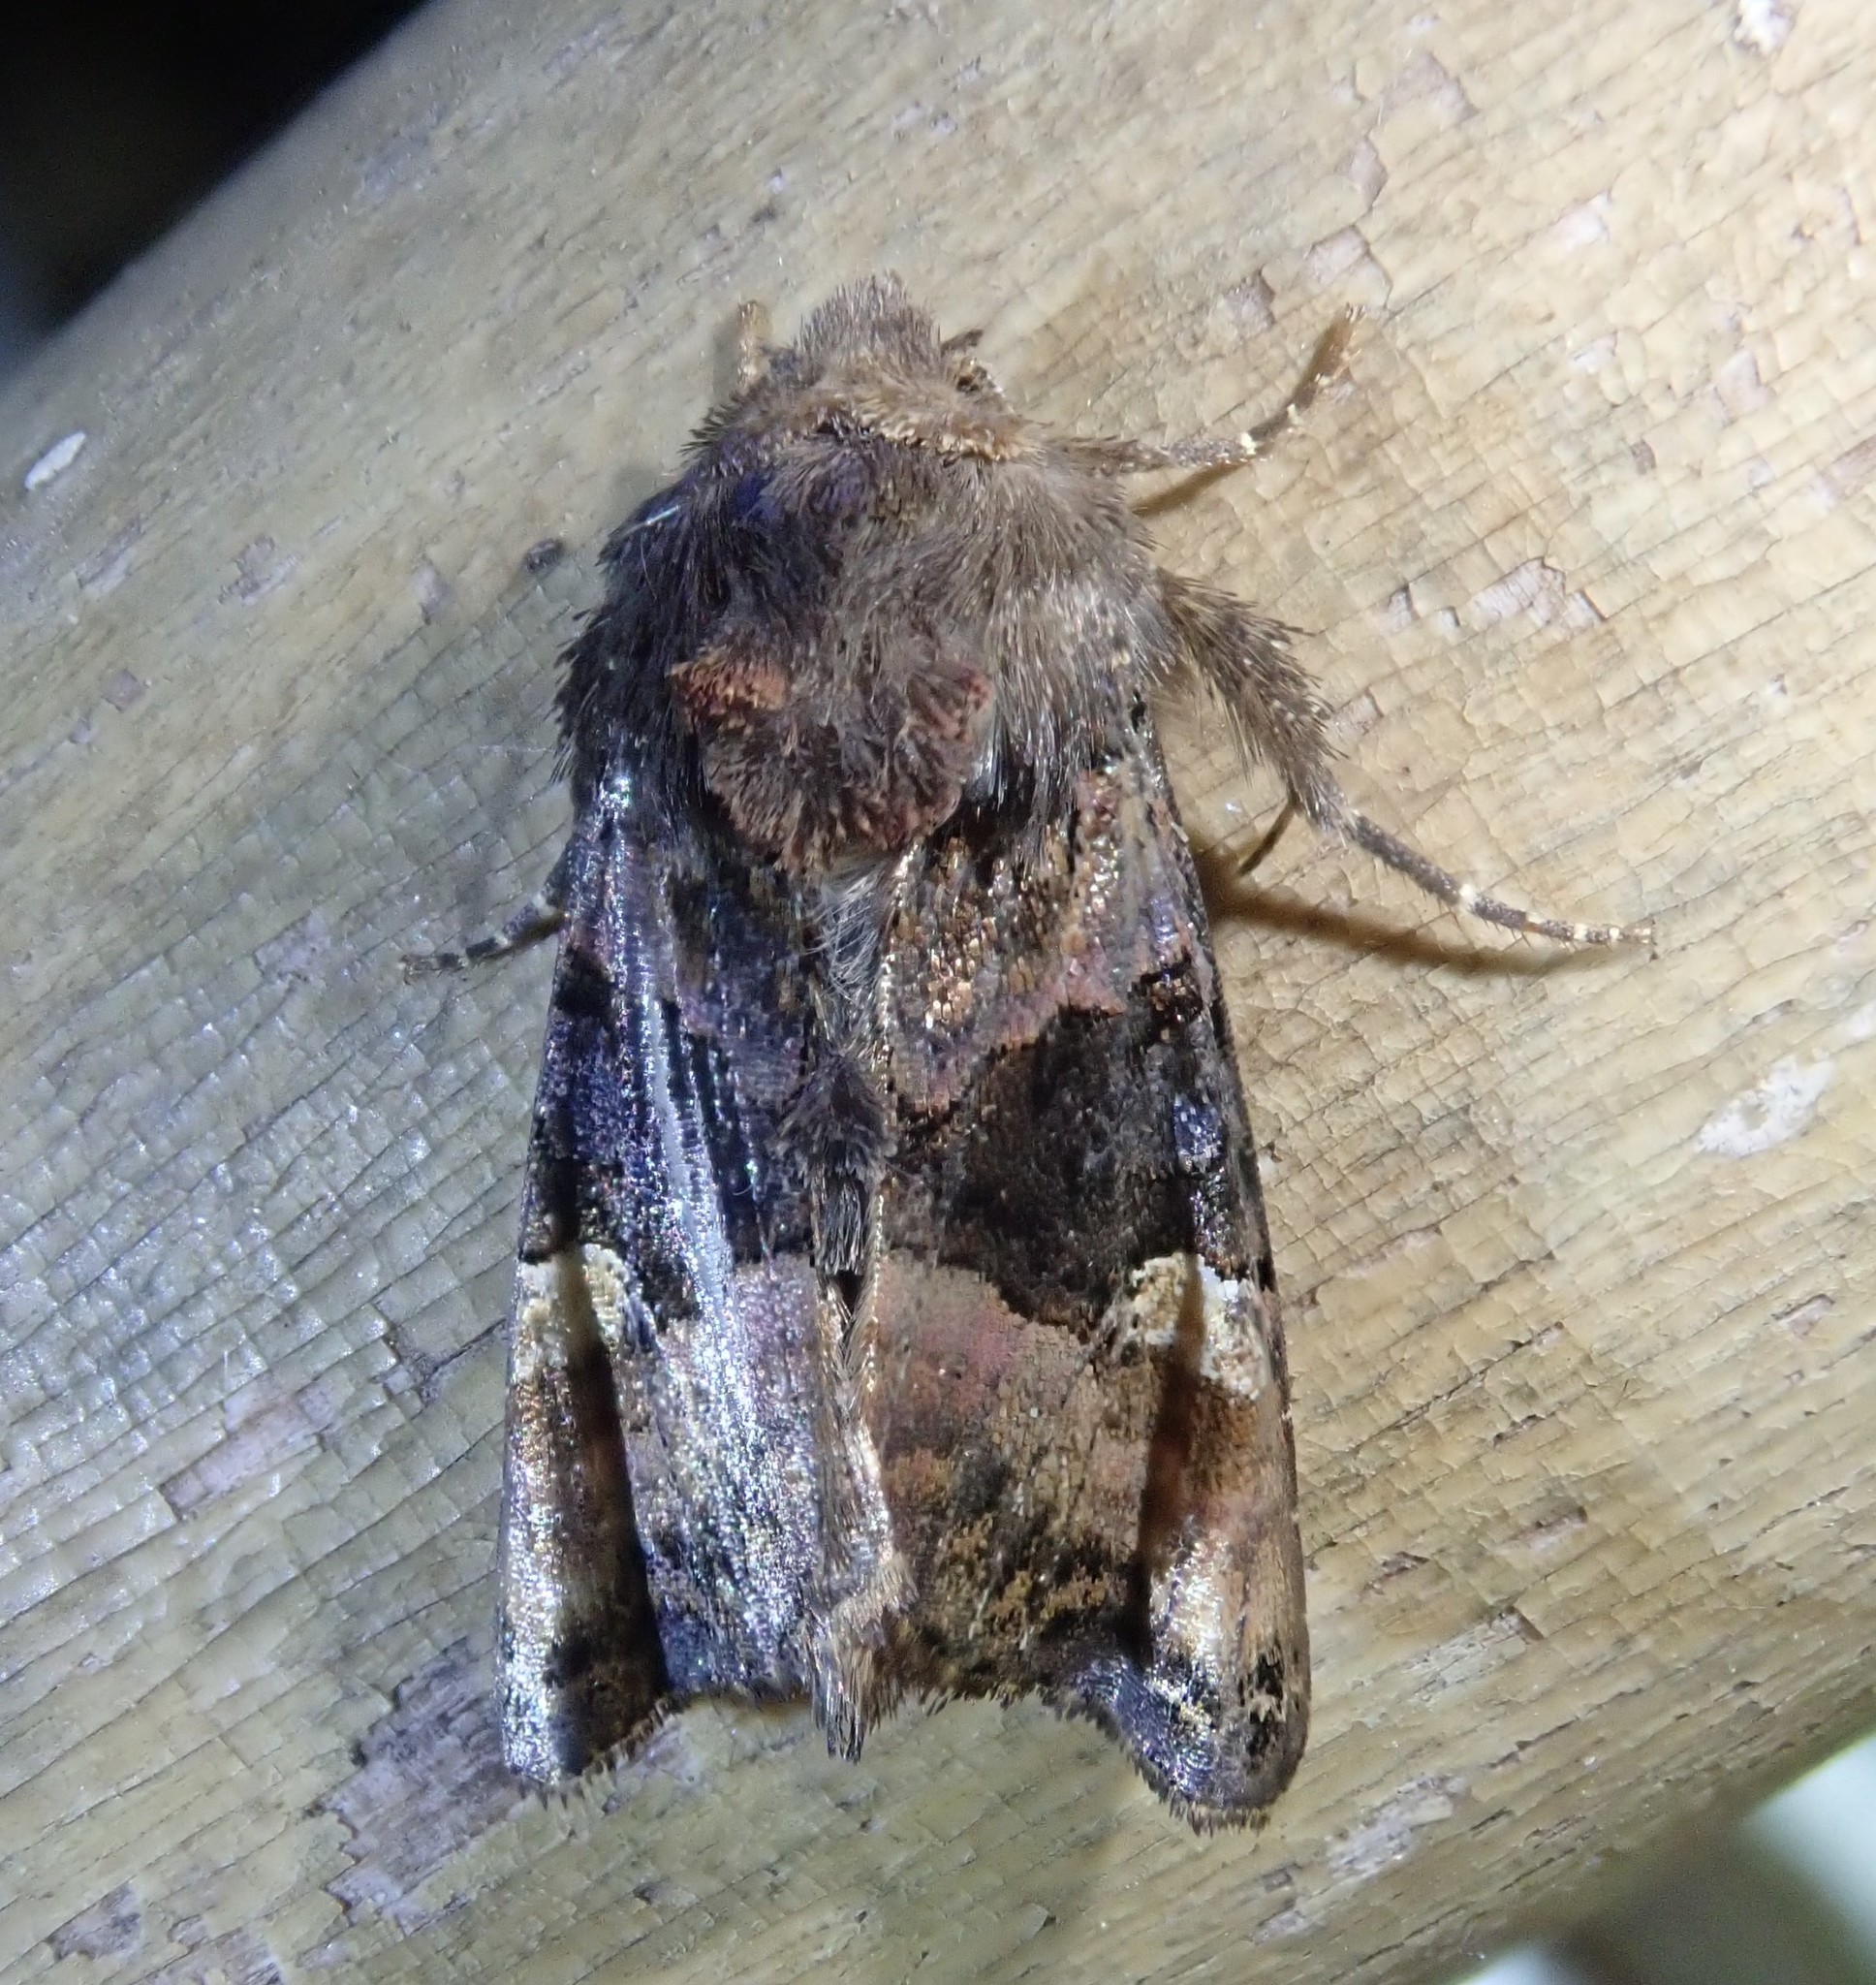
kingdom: Animalia
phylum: Arthropoda
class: Insecta
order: Lepidoptera
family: Noctuidae
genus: Euplexia
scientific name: Euplexia lucipara
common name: Small angle shades
